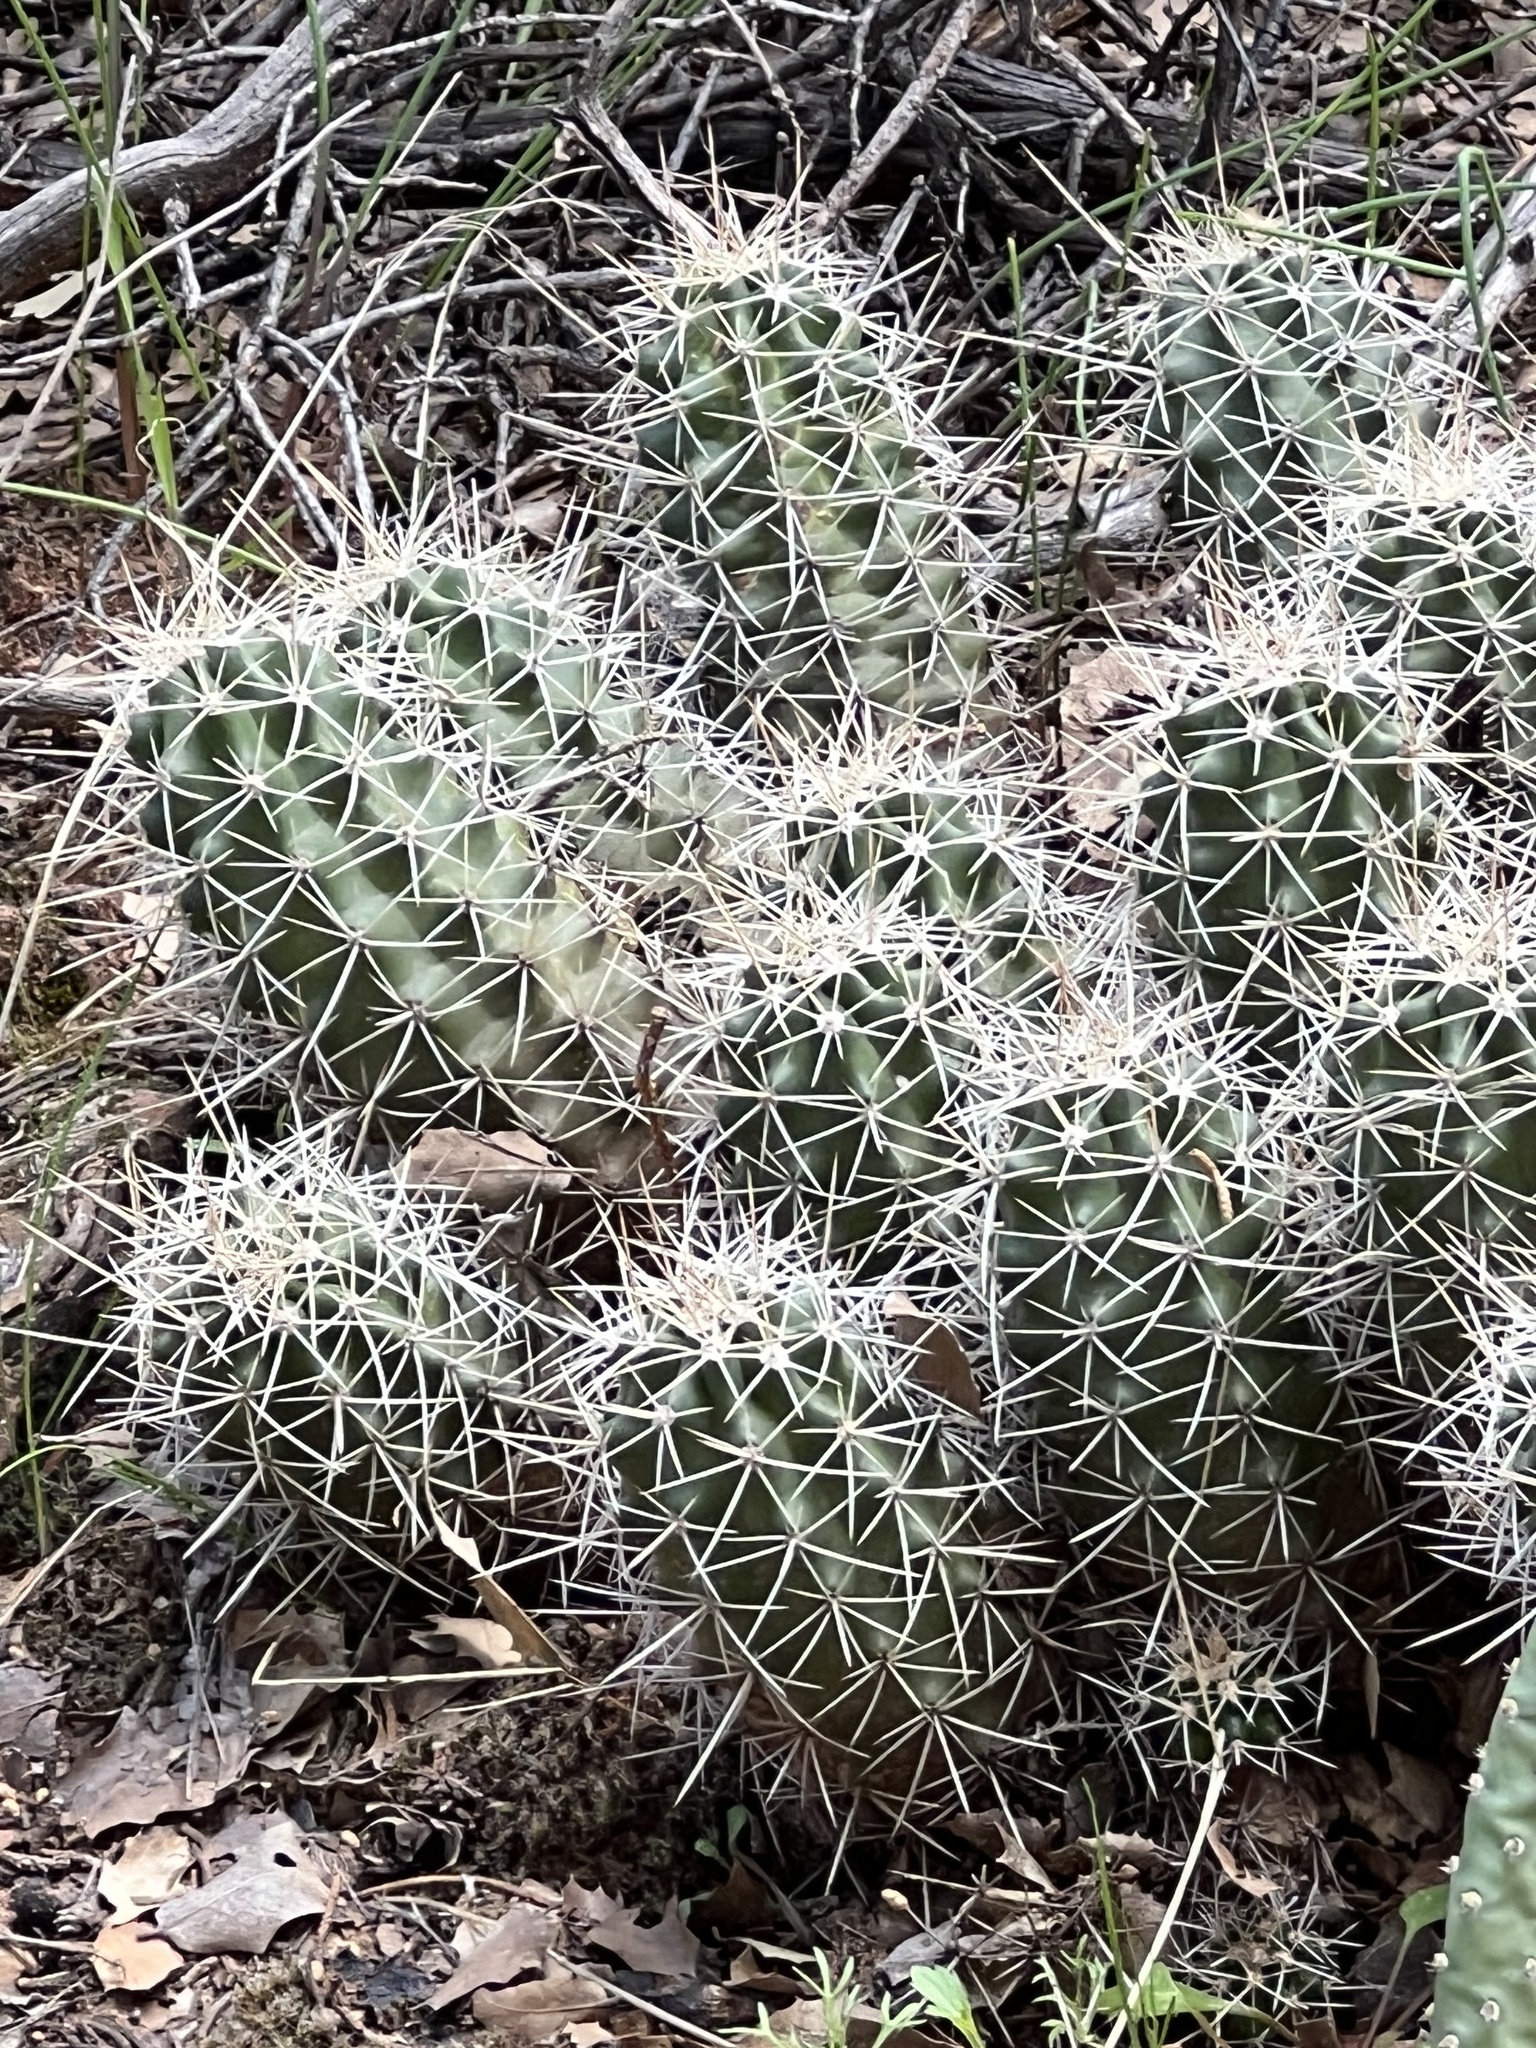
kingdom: Plantae
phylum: Tracheophyta
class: Magnoliopsida
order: Caryophyllales
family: Cactaceae
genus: Echinocereus
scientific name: Echinocereus triglochidiatus
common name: Claretcup hedgehog
